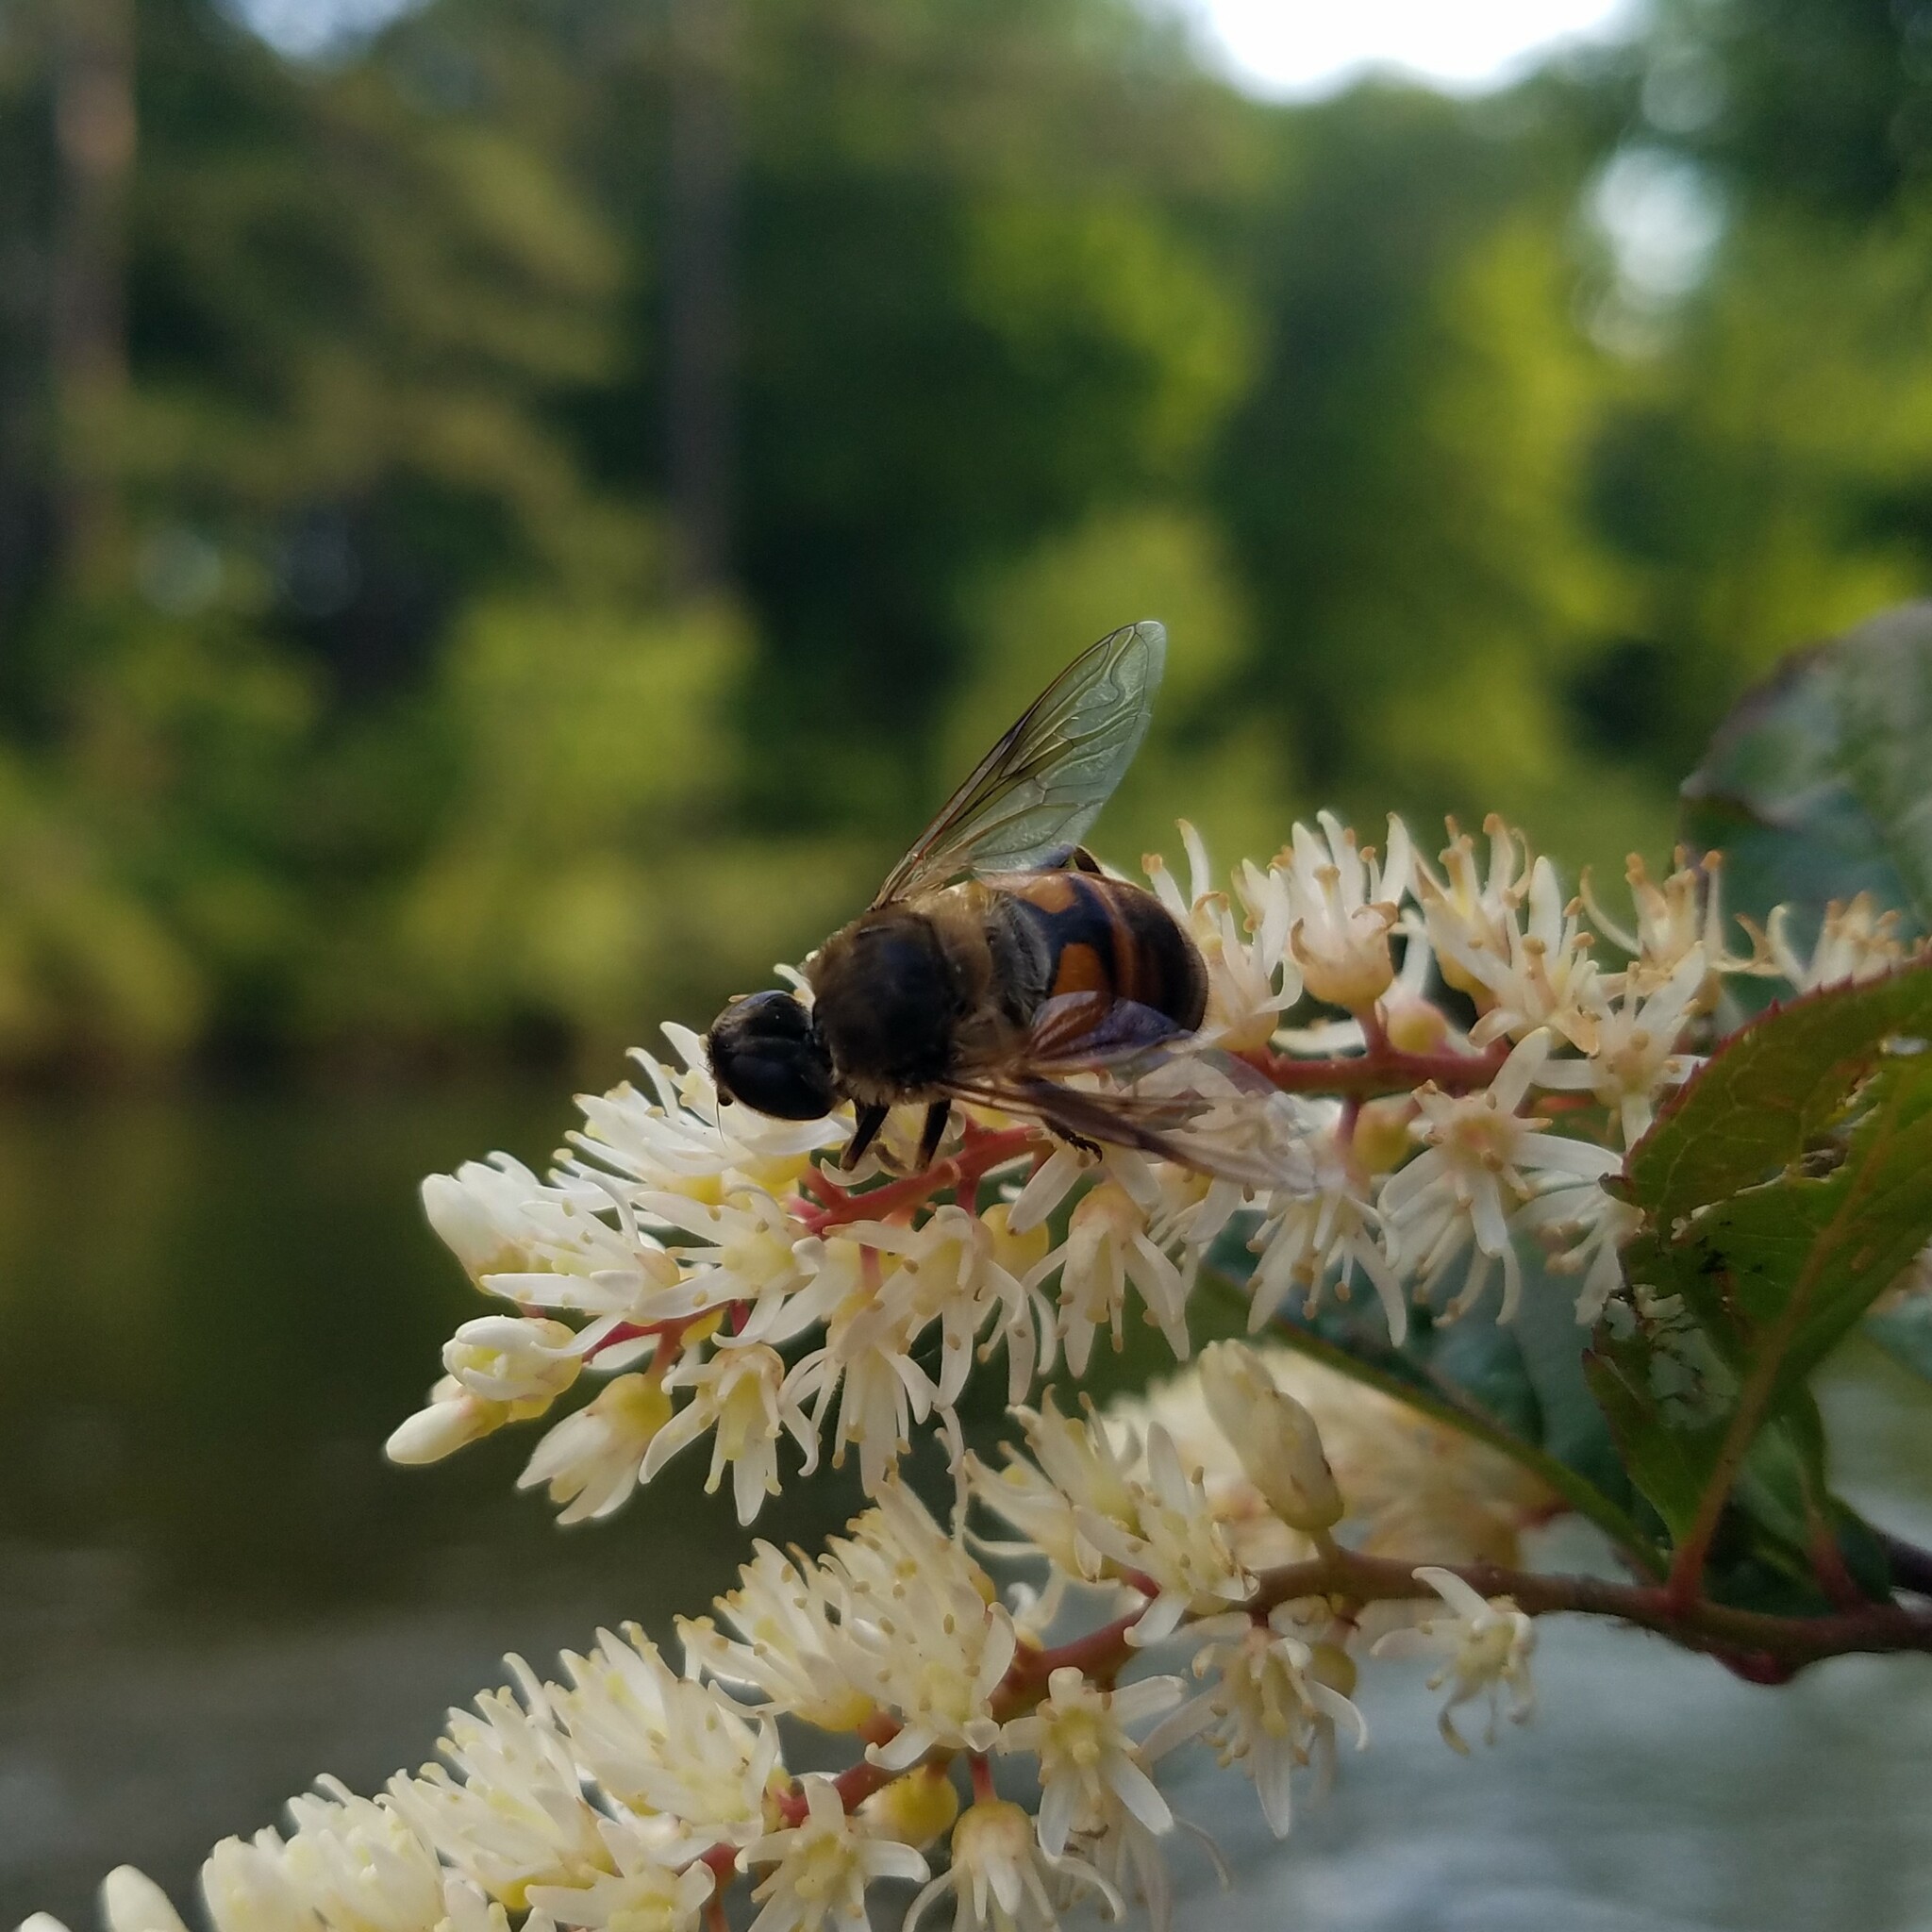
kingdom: Animalia
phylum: Arthropoda
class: Insecta
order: Diptera
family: Syrphidae
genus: Eristalis
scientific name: Eristalis tenax
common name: Drone fly
